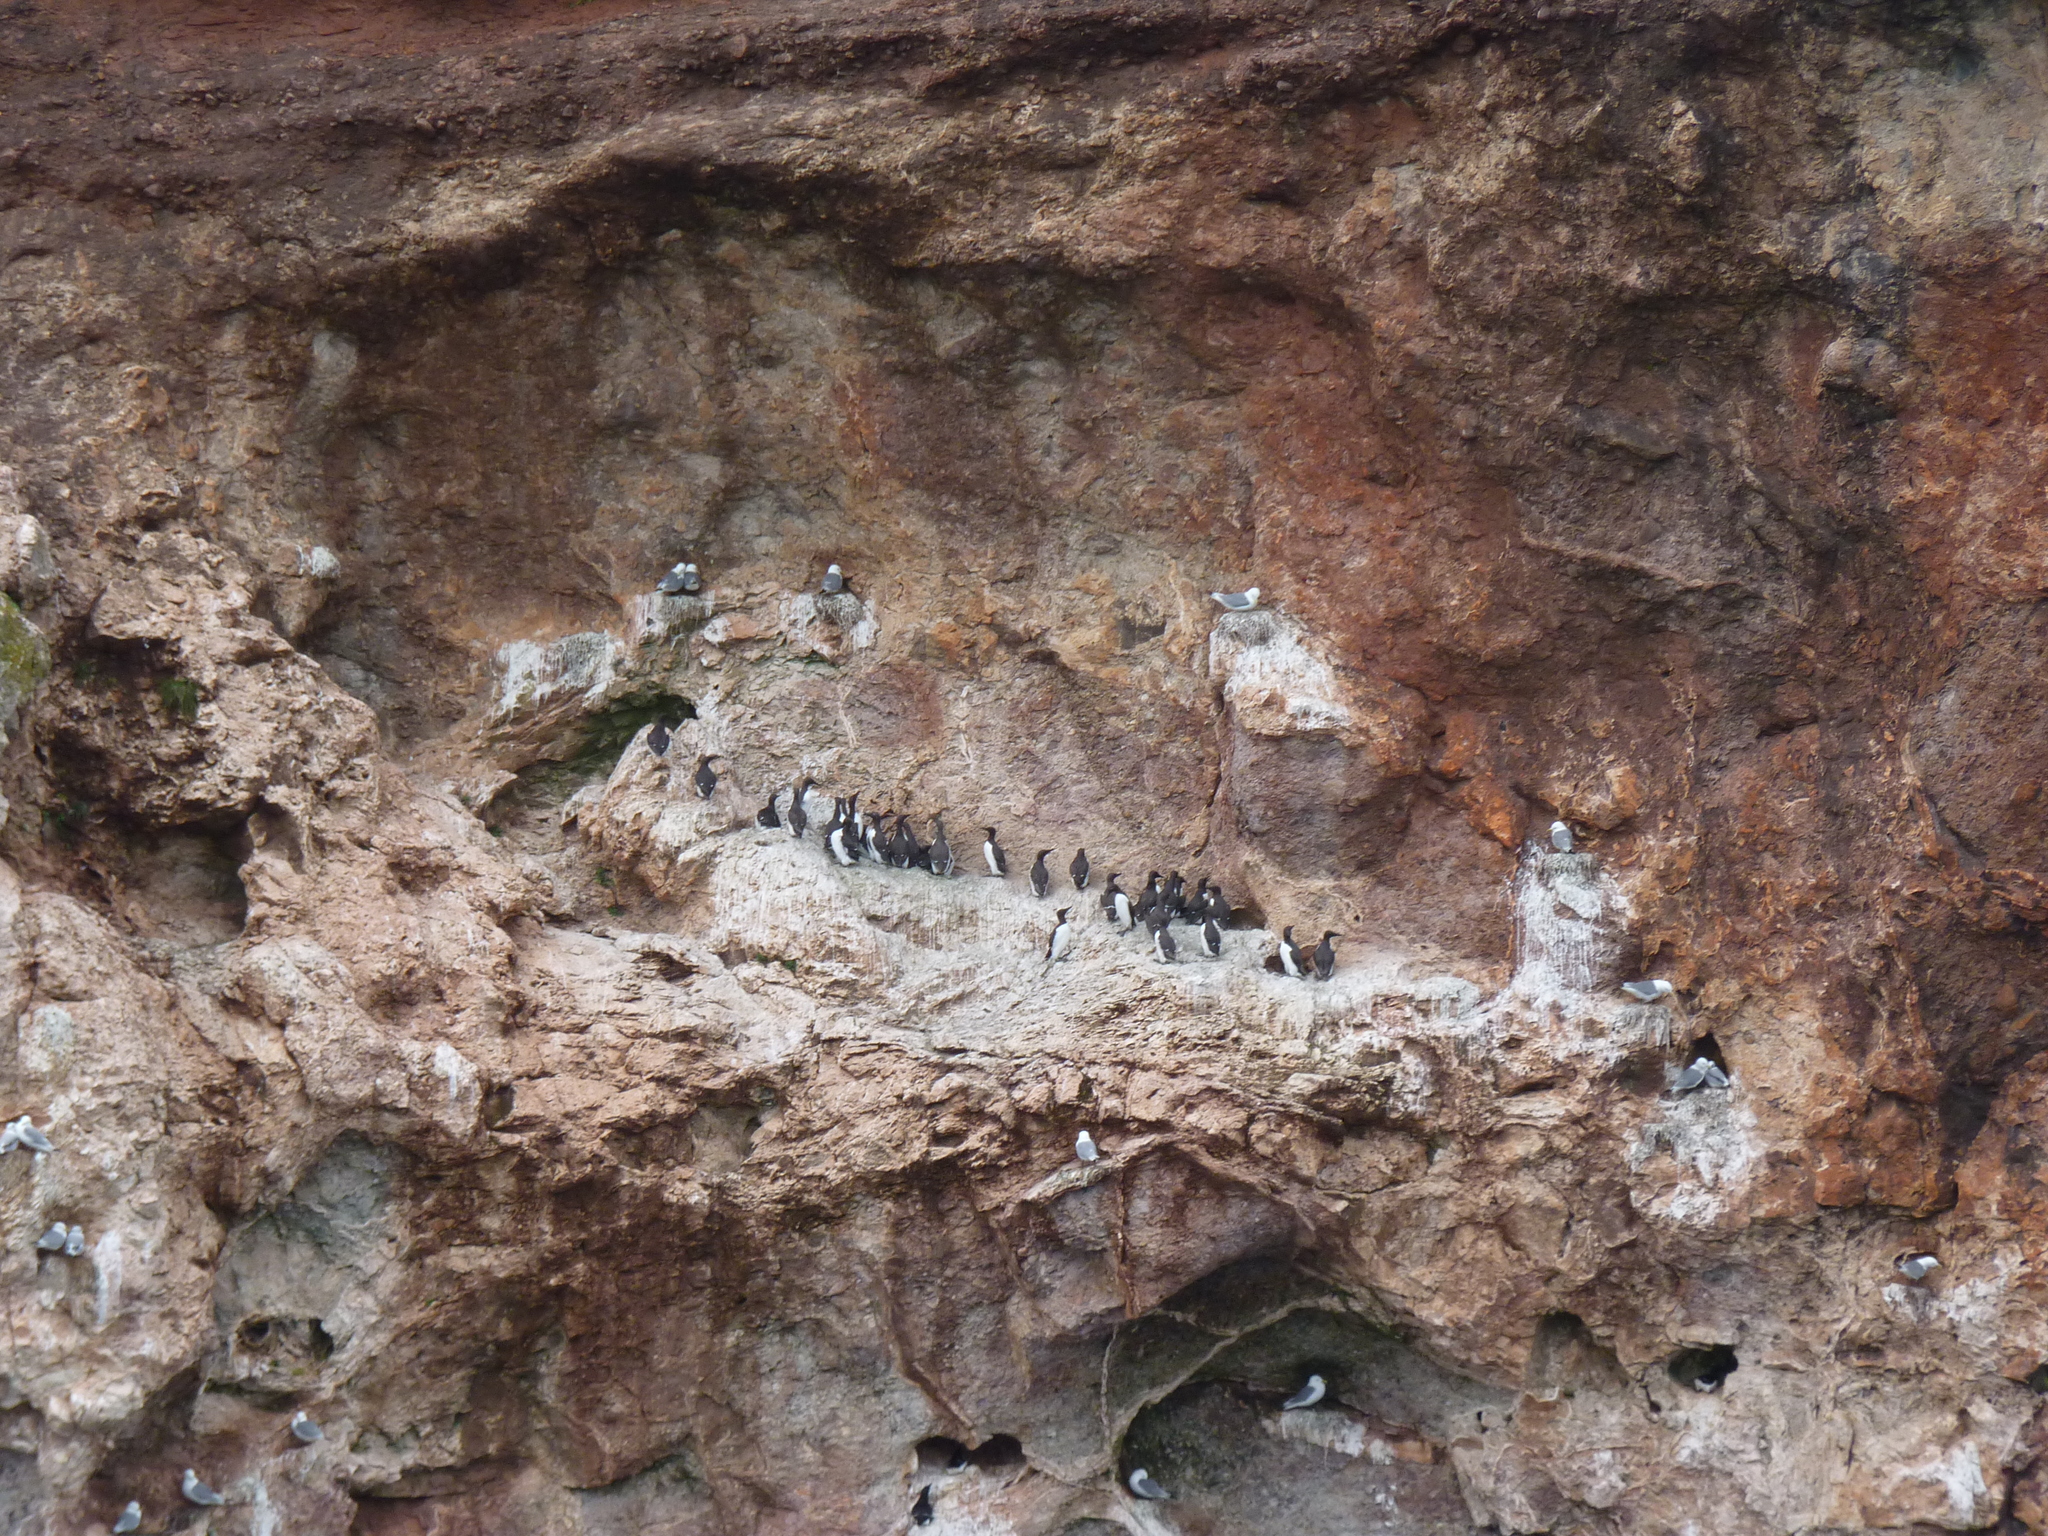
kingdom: Animalia
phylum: Chordata
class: Aves
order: Charadriiformes
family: Laridae
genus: Rissa
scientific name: Rissa tridactyla
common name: Black-legged kittiwake
